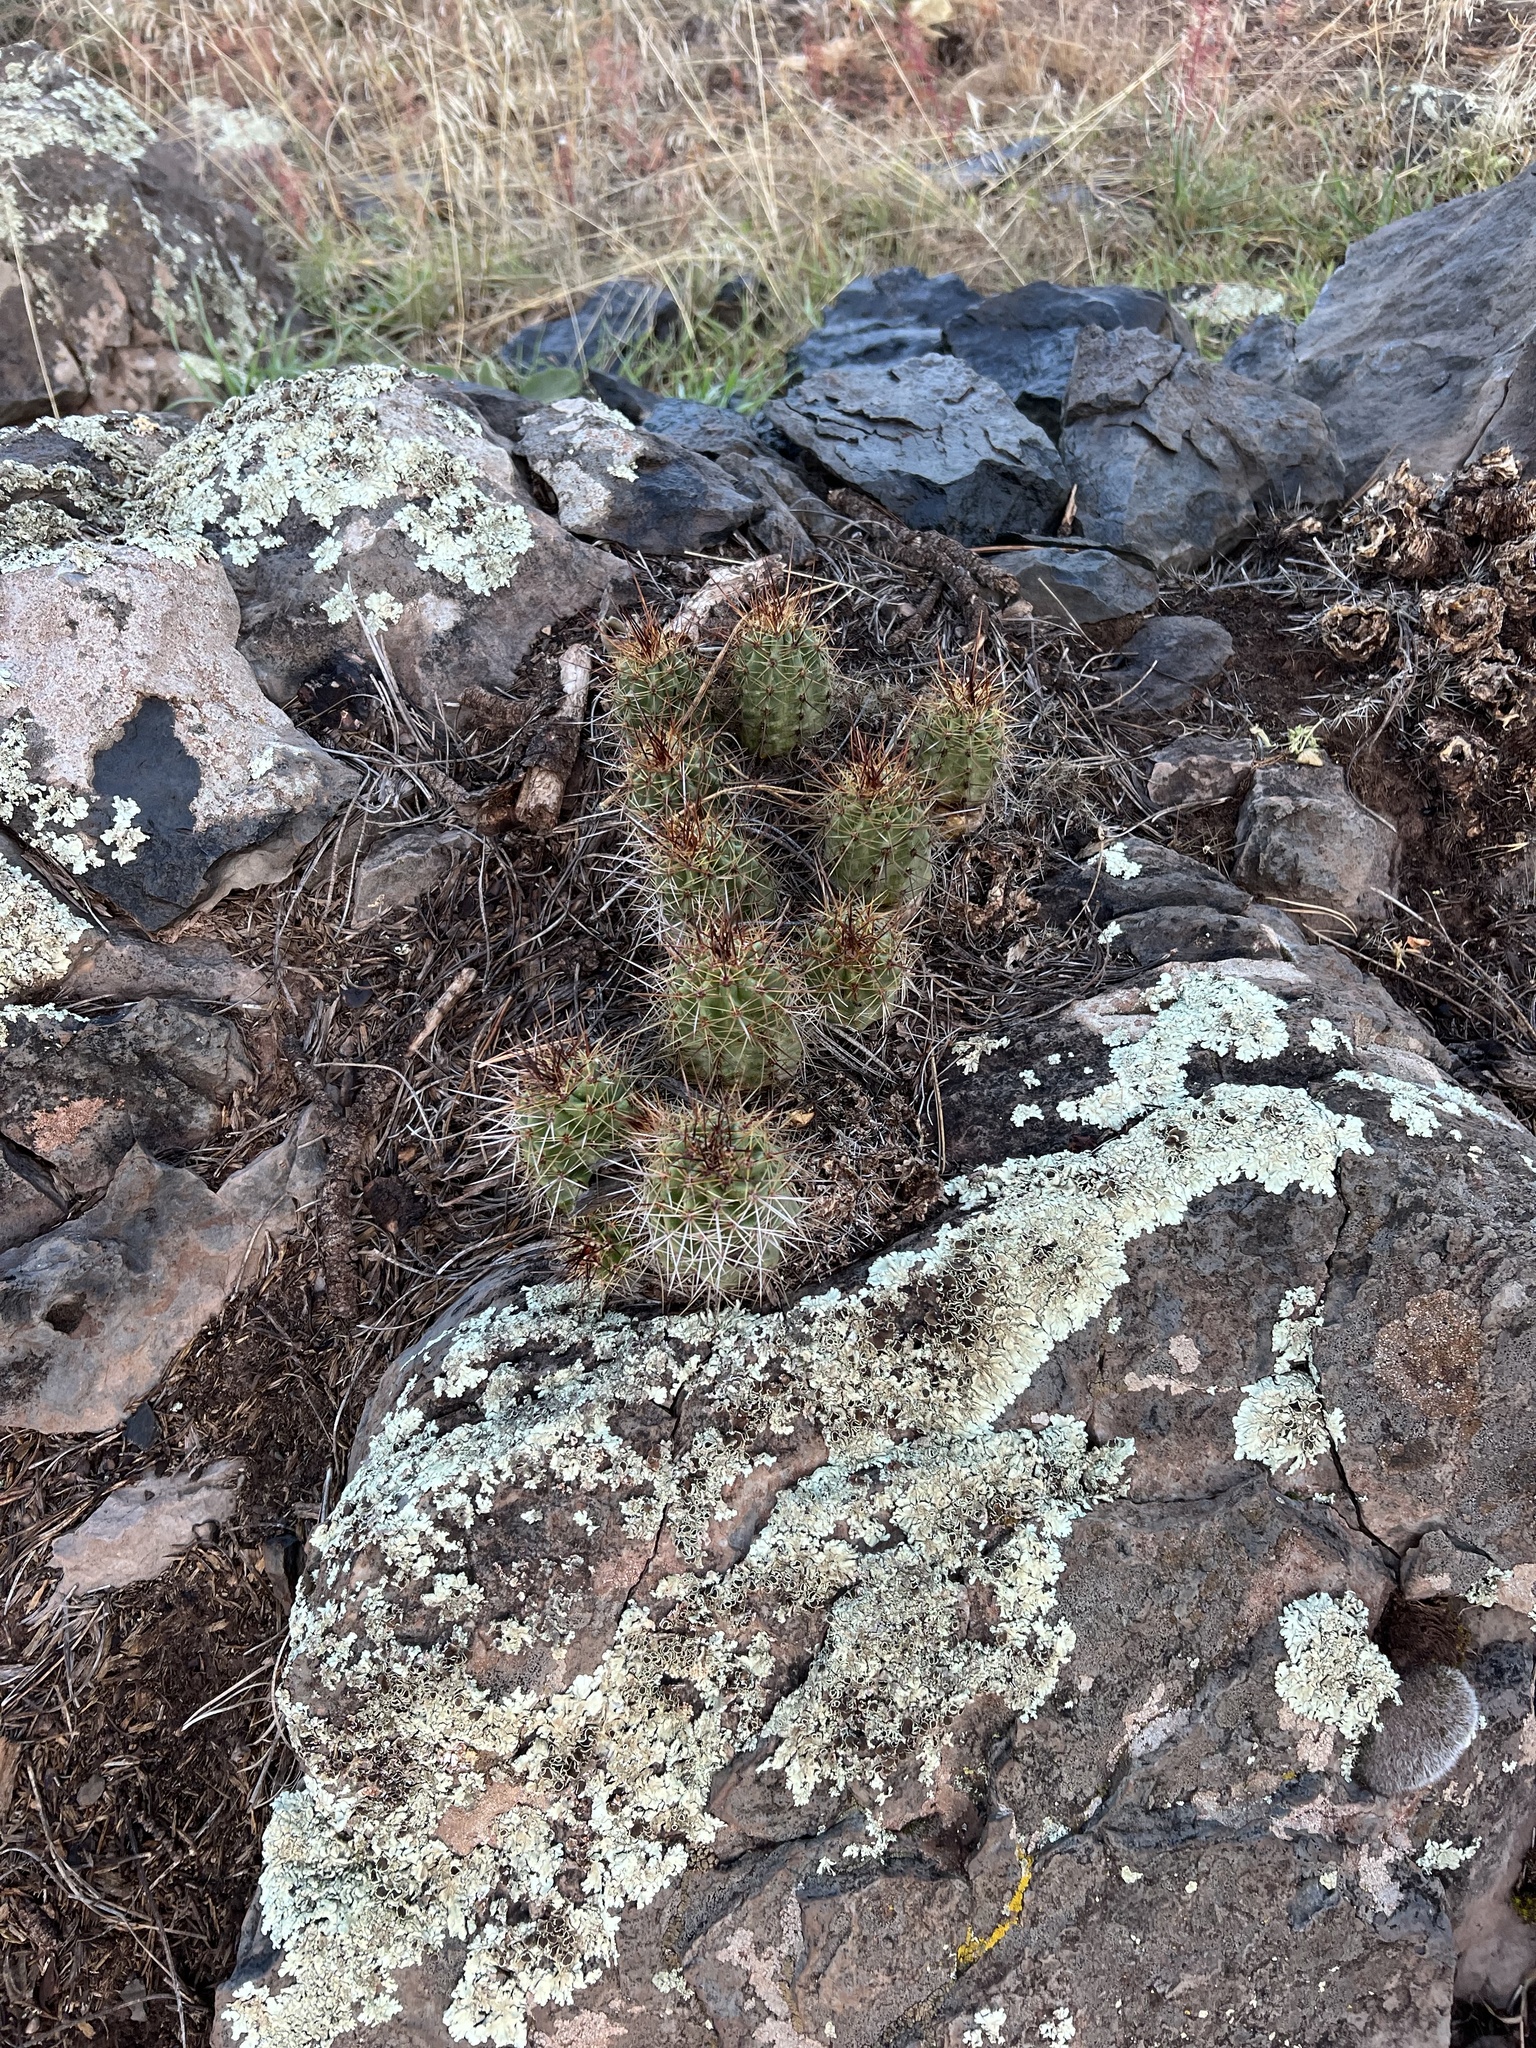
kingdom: Plantae
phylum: Tracheophyta
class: Magnoliopsida
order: Caryophyllales
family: Cactaceae
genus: Echinocereus
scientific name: Echinocereus bakeri
